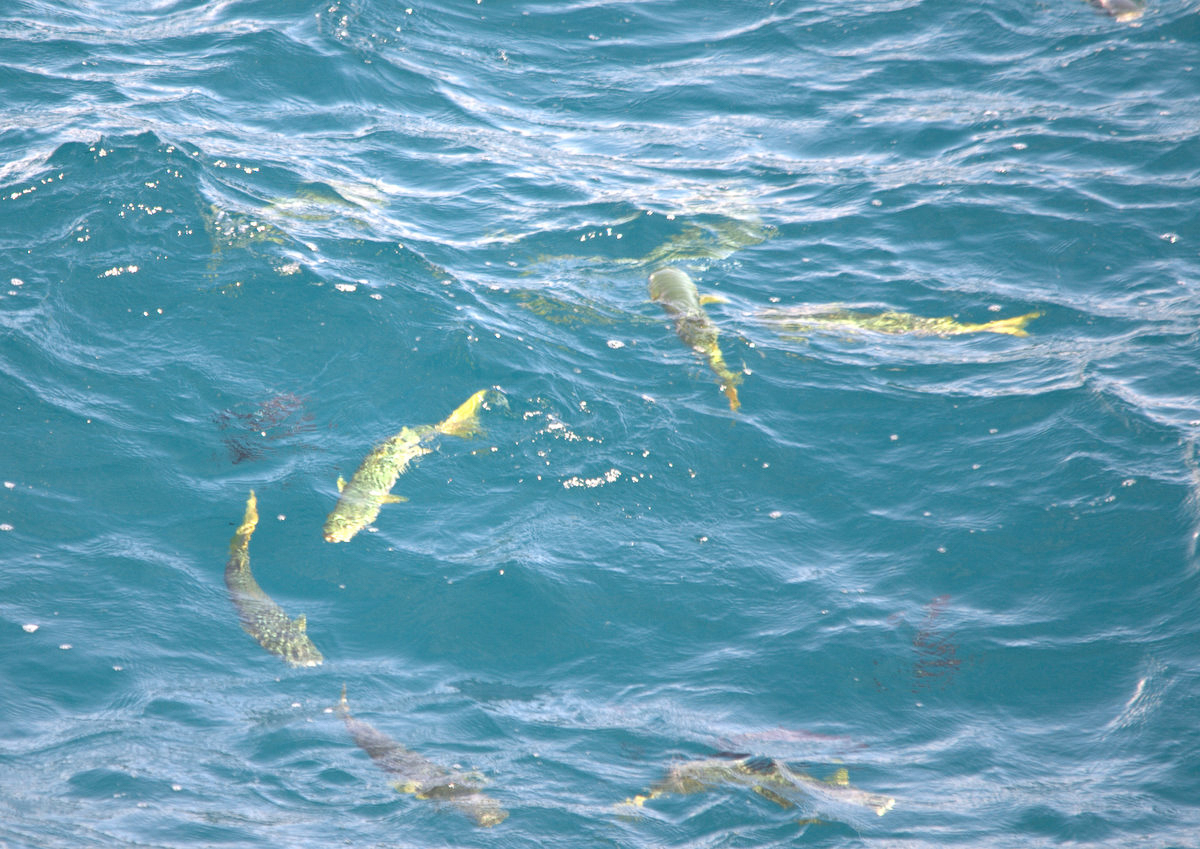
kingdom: Animalia
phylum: Chordata
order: Mugiliformes
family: Mugilidae
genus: Mugil
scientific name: Mugil cephalus
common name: Grey mullet
